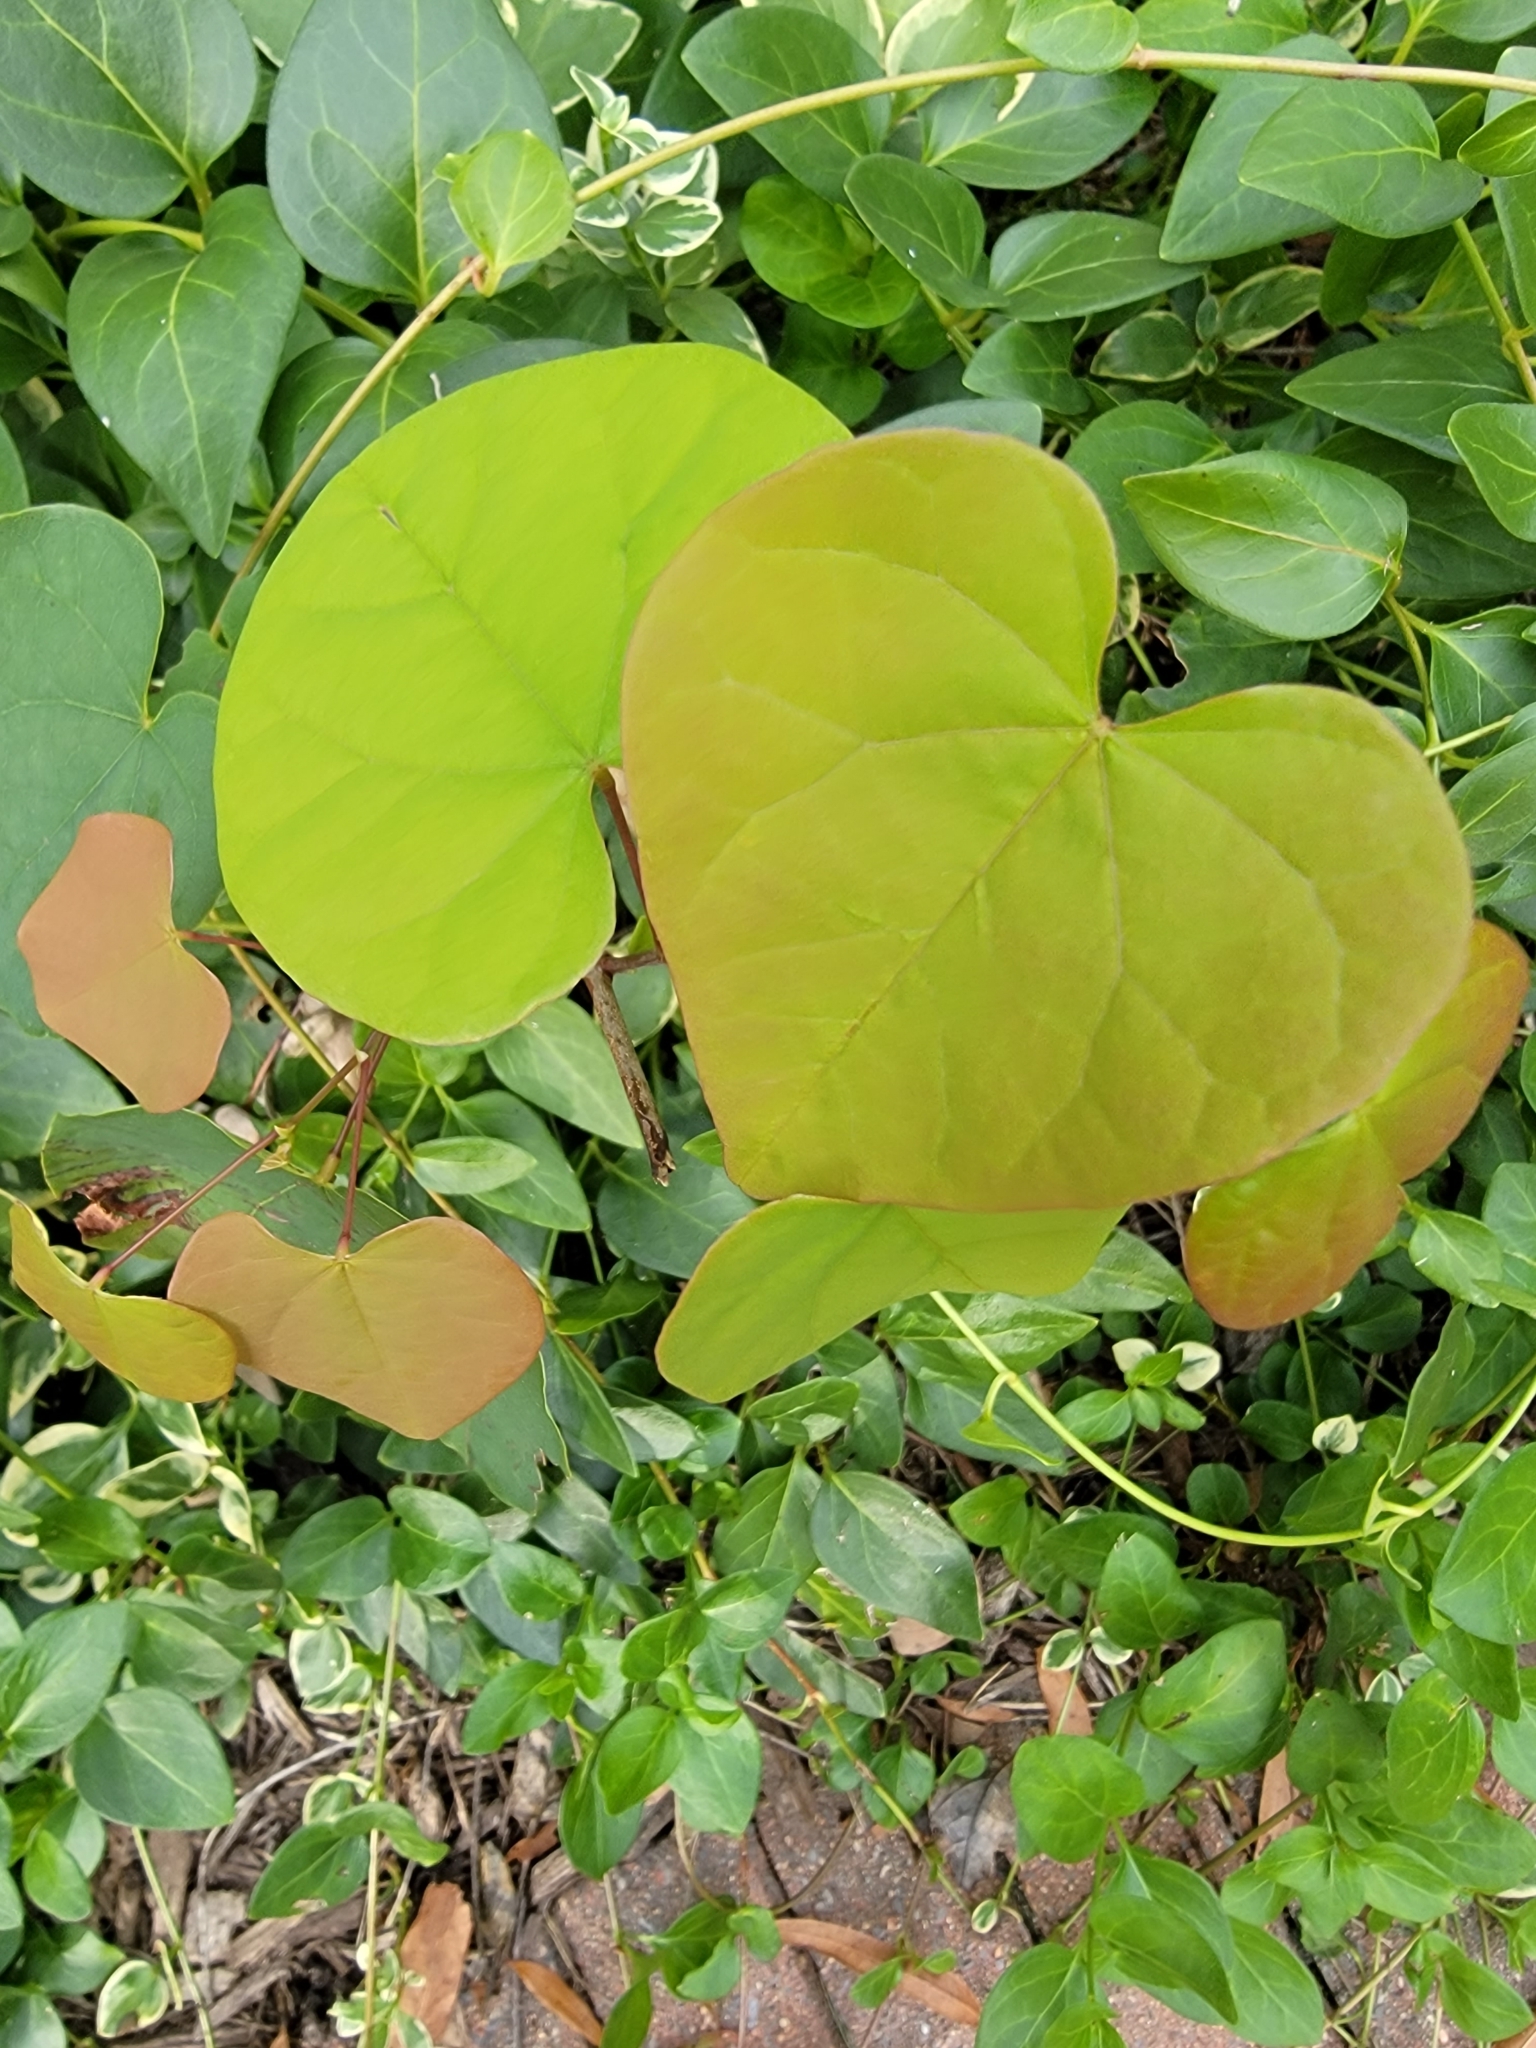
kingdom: Plantae
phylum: Tracheophyta
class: Magnoliopsida
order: Fabales
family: Fabaceae
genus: Cercis
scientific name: Cercis canadensis
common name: Eastern redbud
